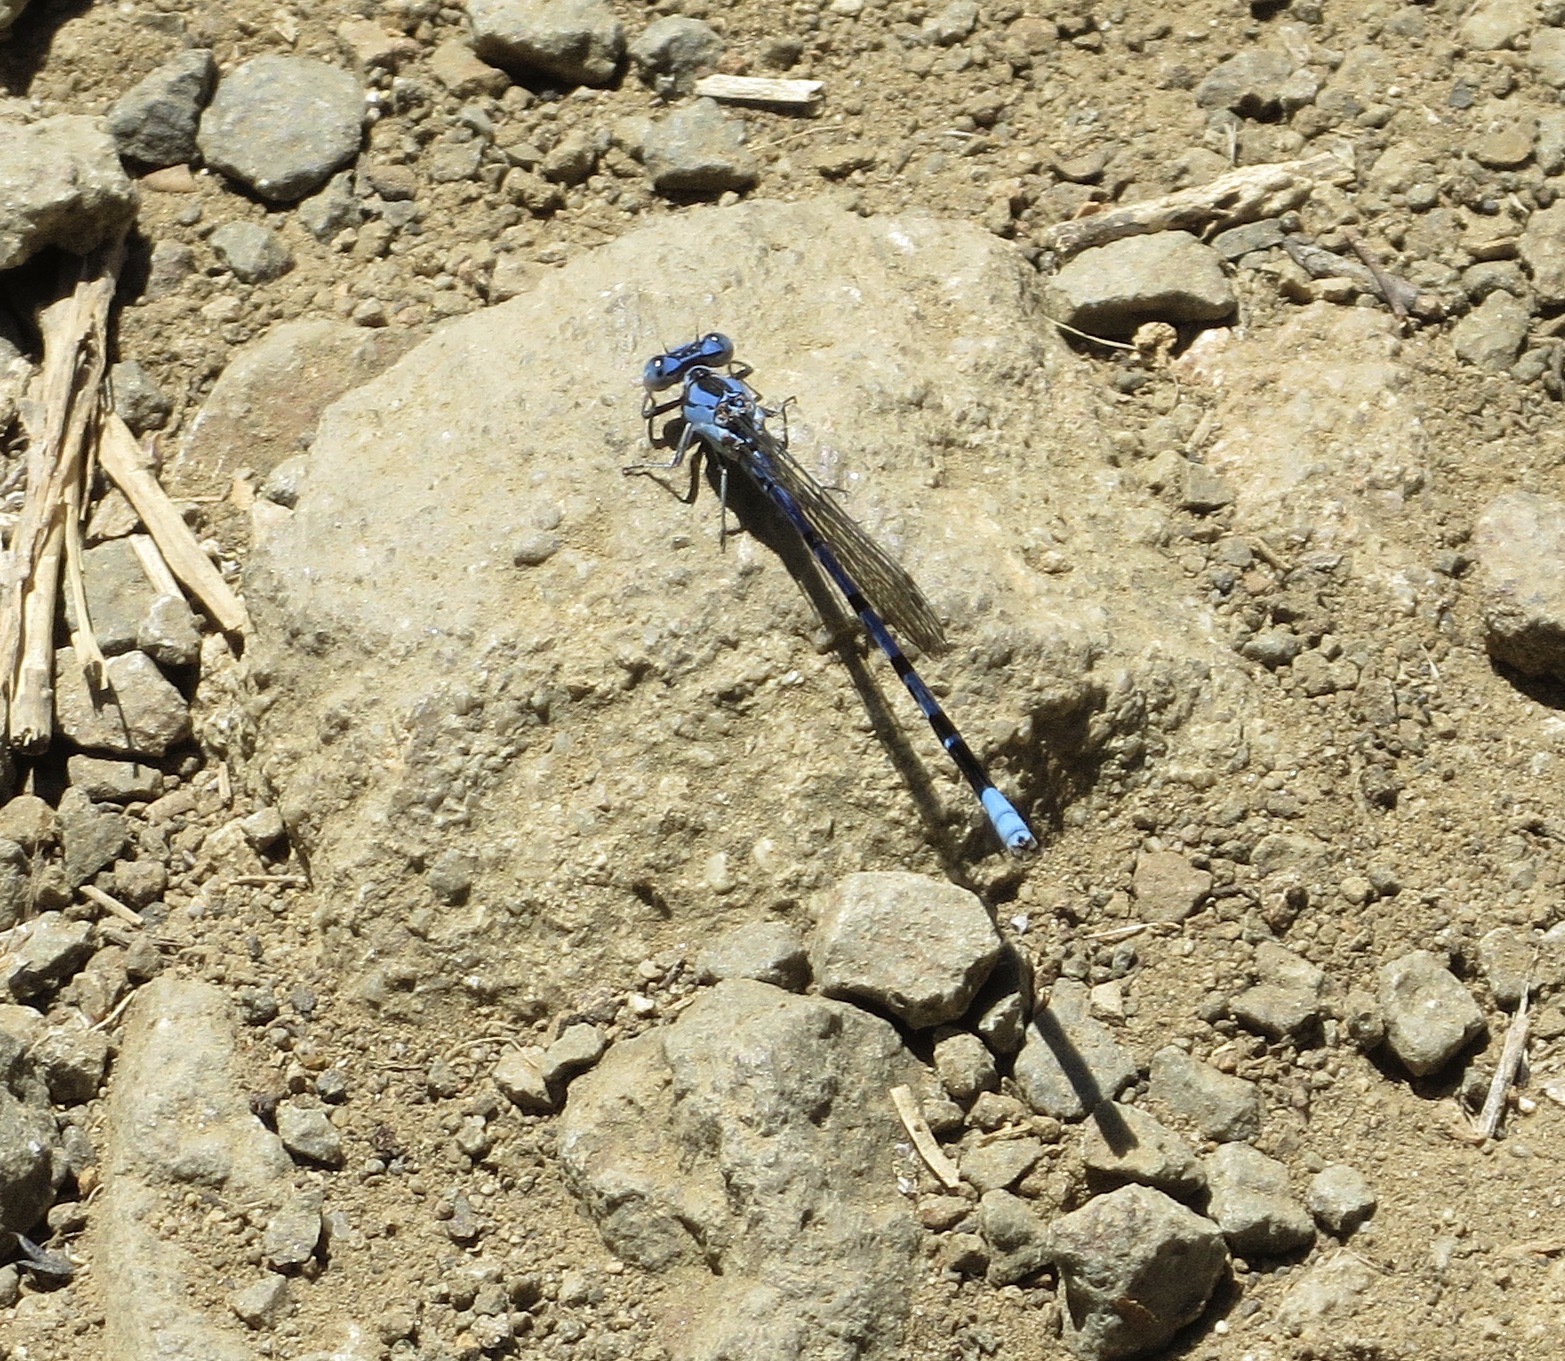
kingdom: Animalia
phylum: Arthropoda
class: Insecta
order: Odonata
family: Coenagrionidae
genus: Argia
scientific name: Argia vivida
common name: Vivid dancer
